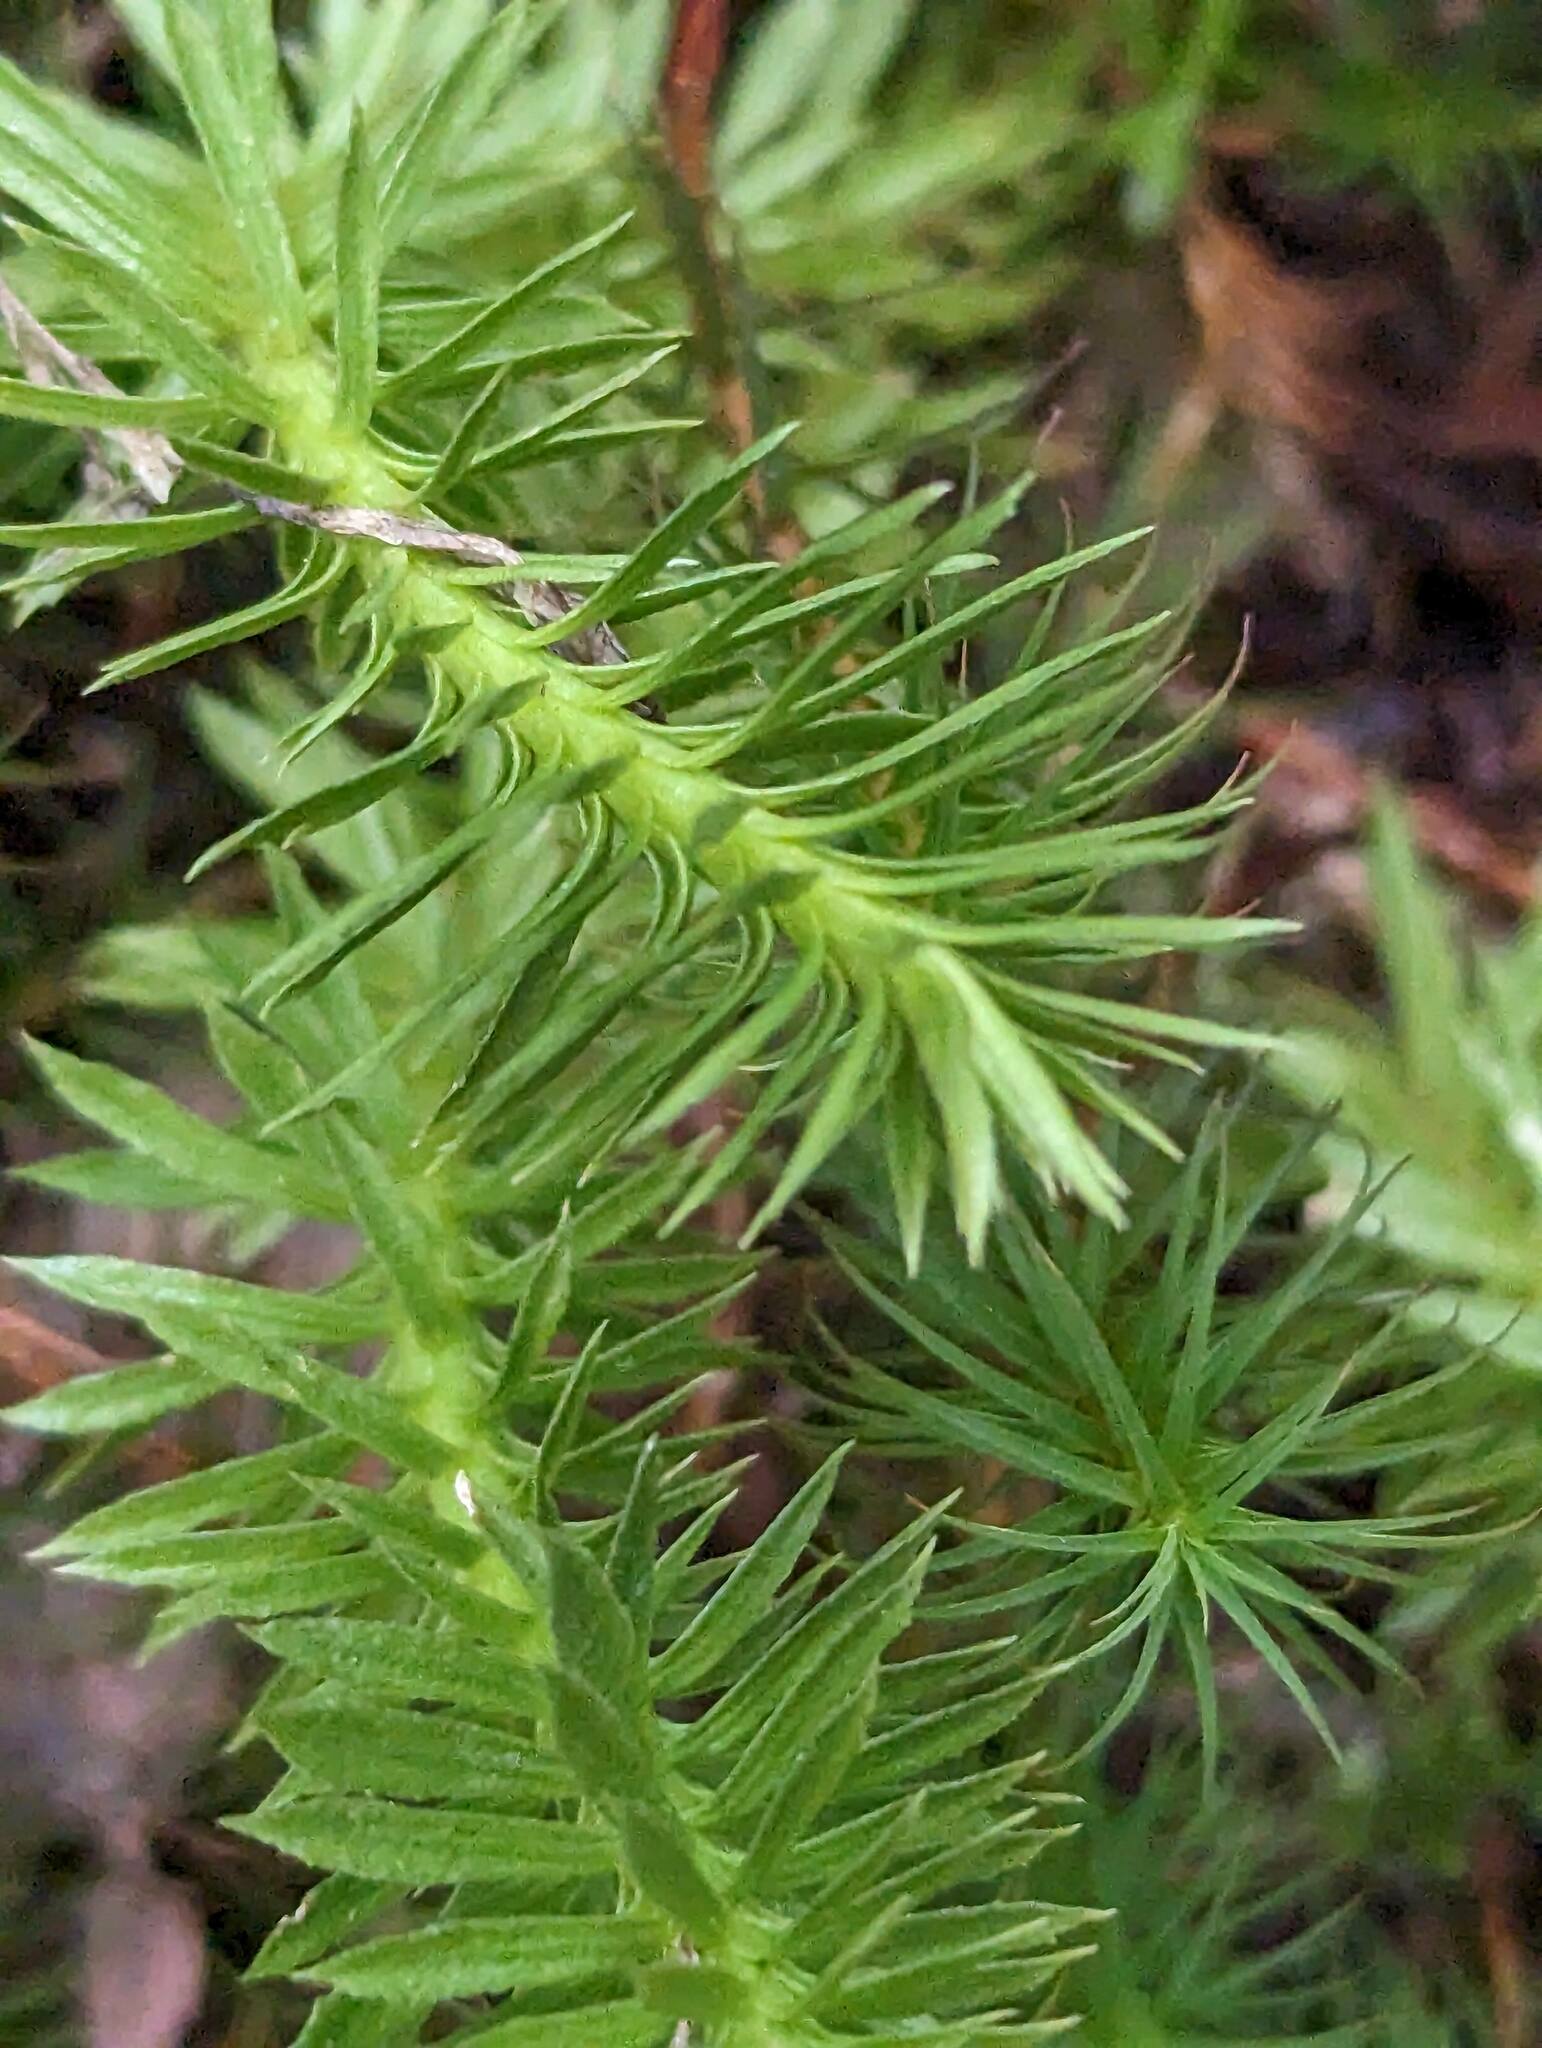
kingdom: Plantae
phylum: Tracheophyta
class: Lycopodiopsida
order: Lycopodiales
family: Lycopodiaceae
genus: Huperzia
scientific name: Huperzia lucidula
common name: Shining clubmoss
